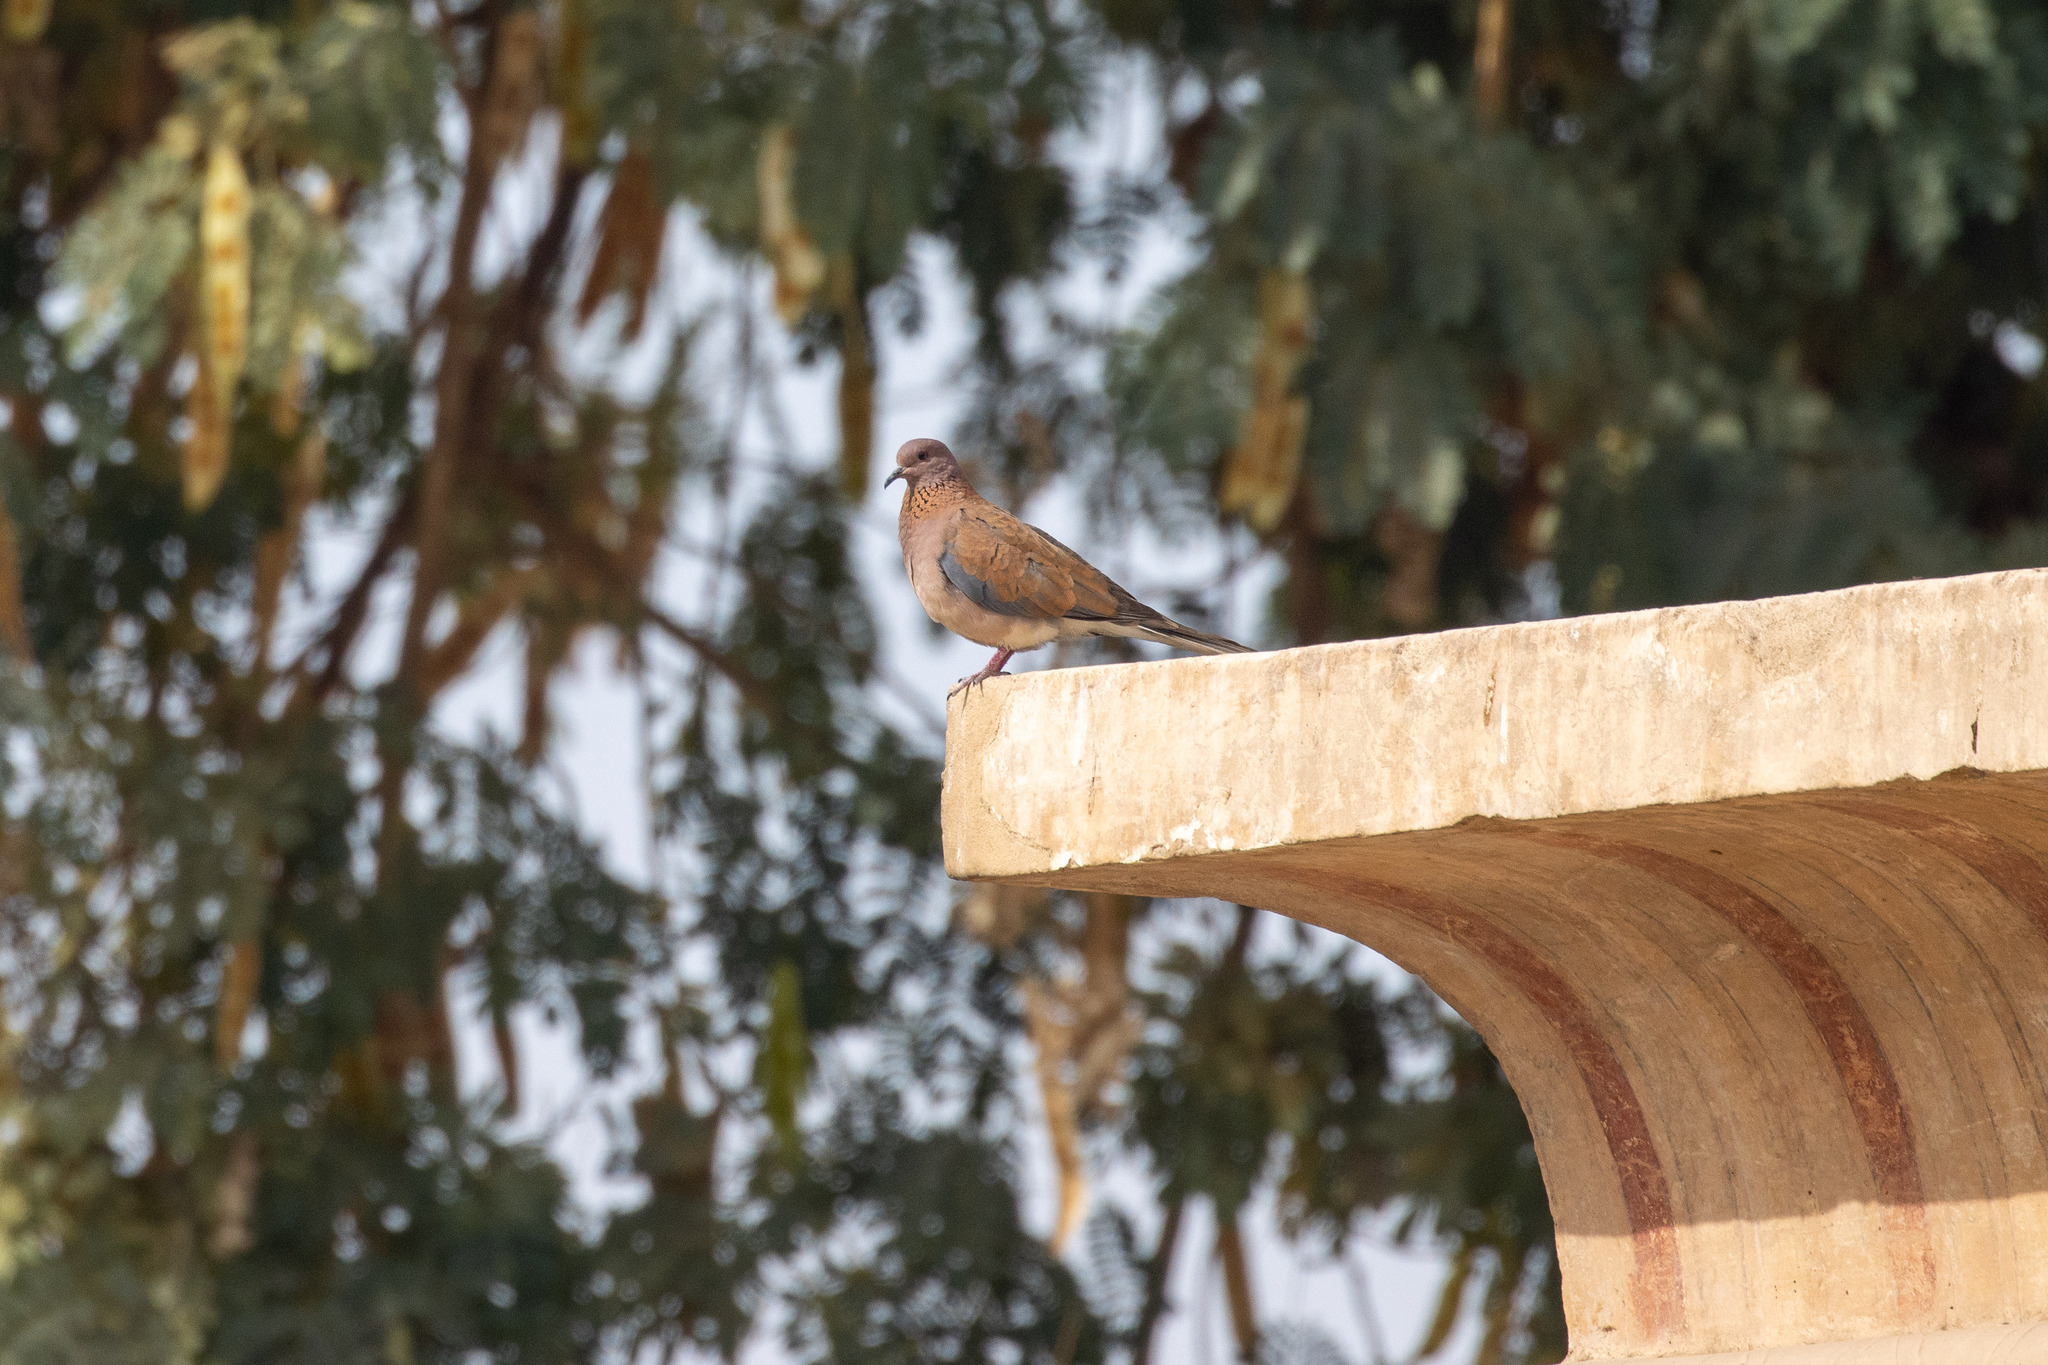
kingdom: Animalia
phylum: Chordata
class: Aves
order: Columbiformes
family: Columbidae
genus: Spilopelia
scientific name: Spilopelia senegalensis
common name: Laughing dove
